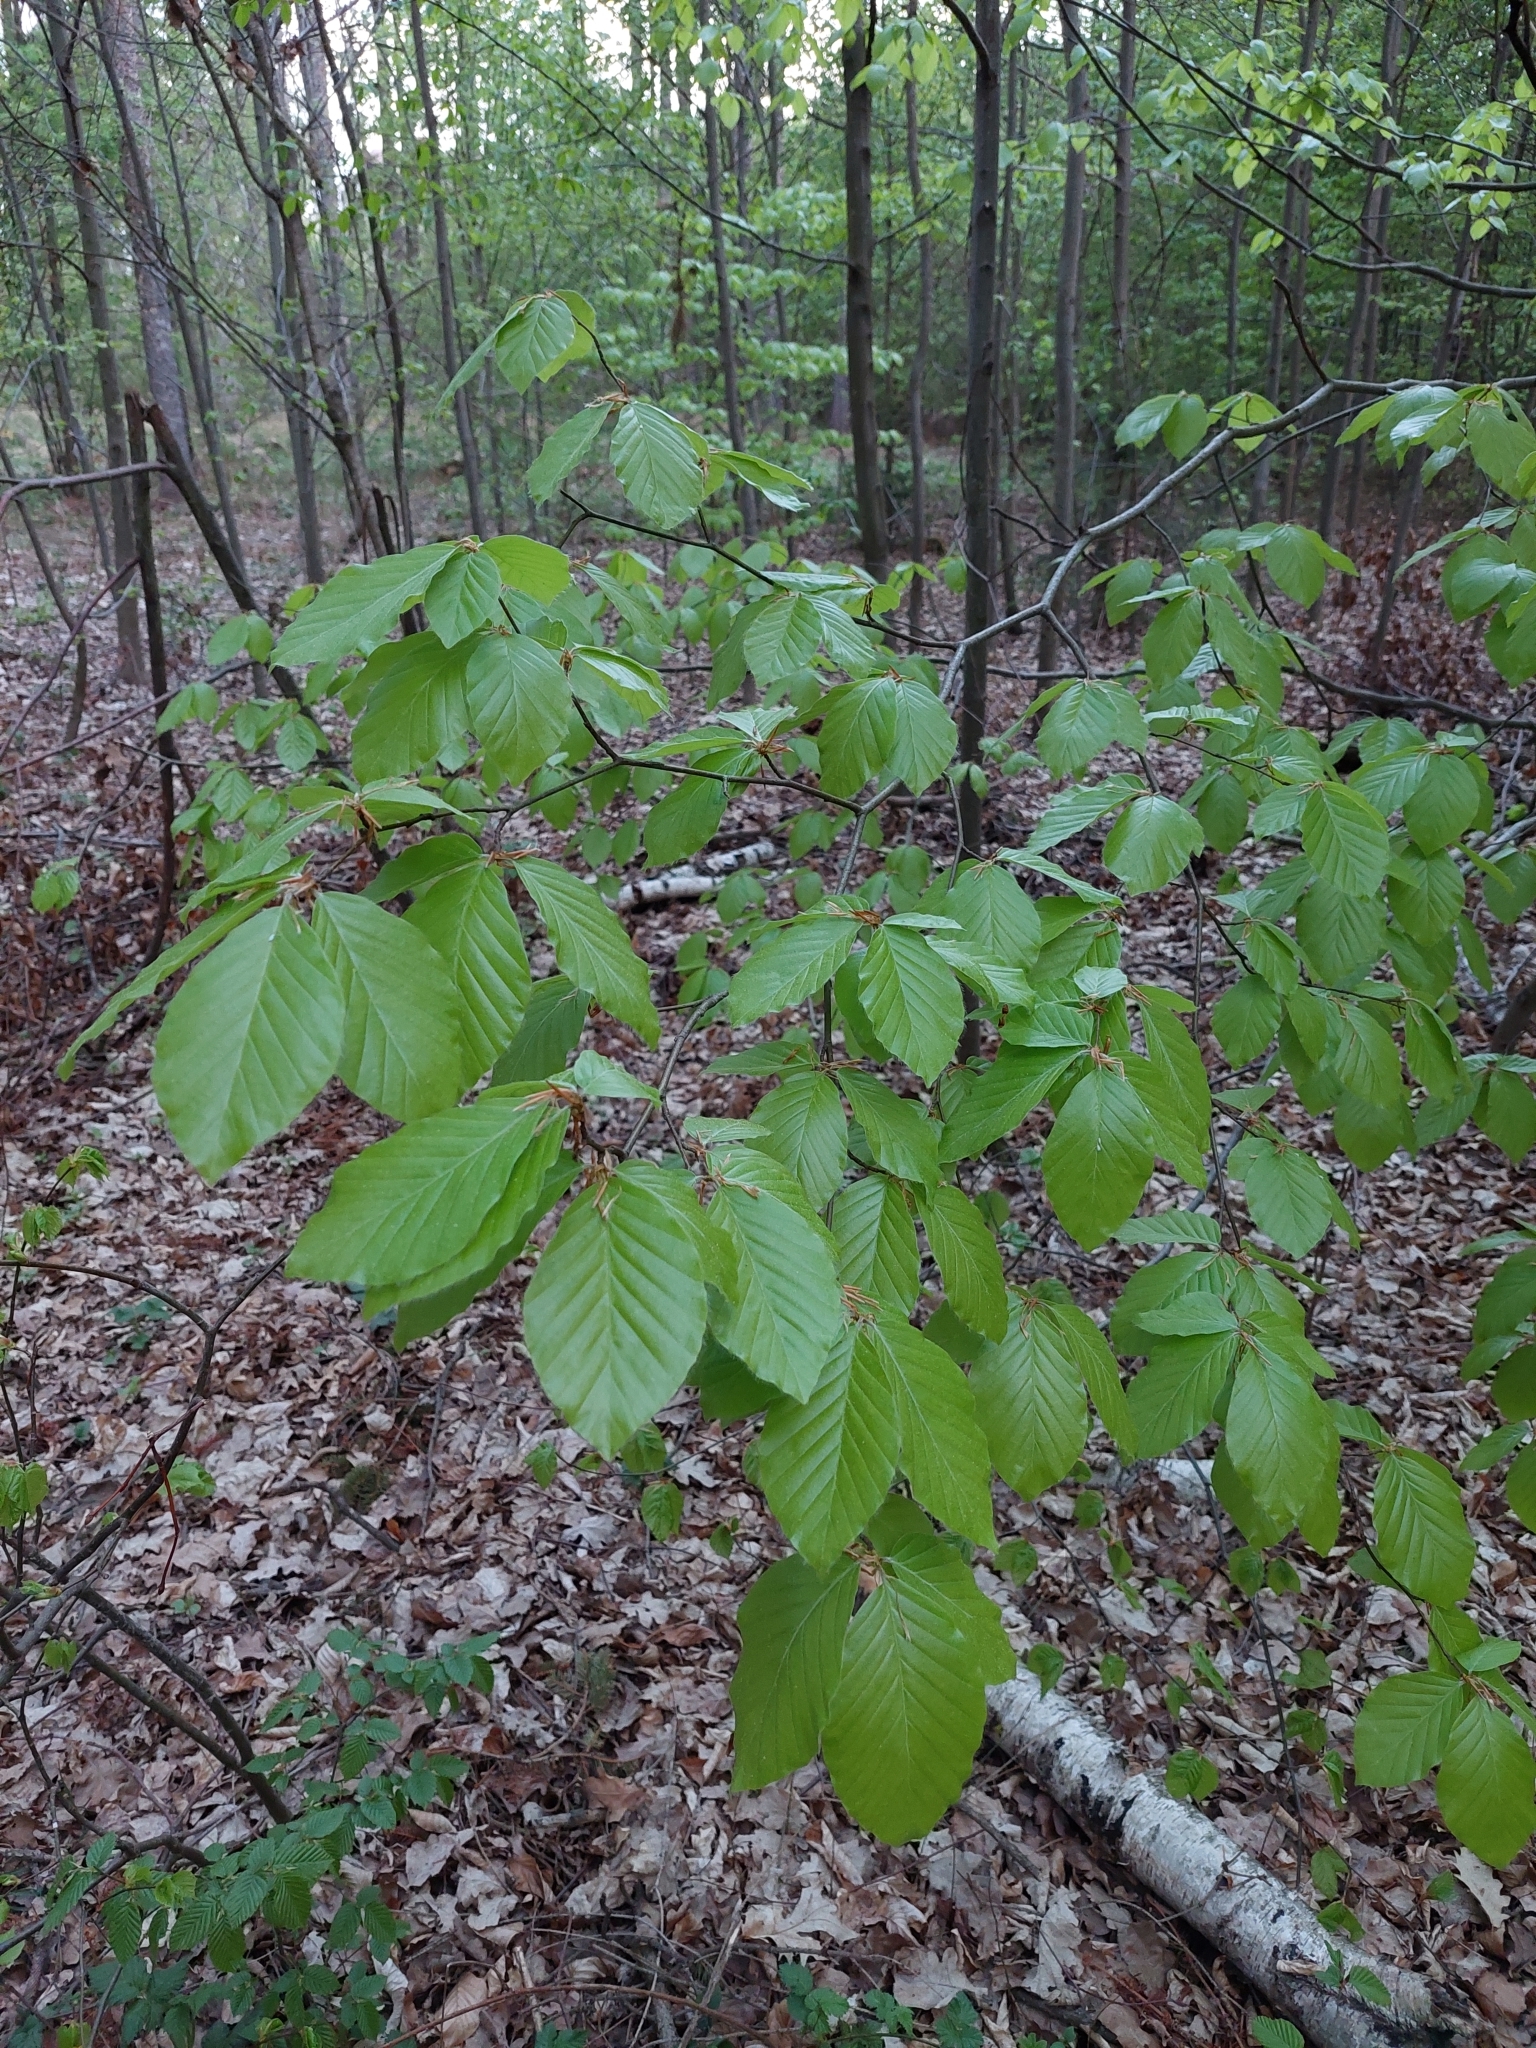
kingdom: Plantae
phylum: Tracheophyta
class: Magnoliopsida
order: Fagales
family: Fagaceae
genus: Fagus
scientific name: Fagus sylvatica
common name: Beech
